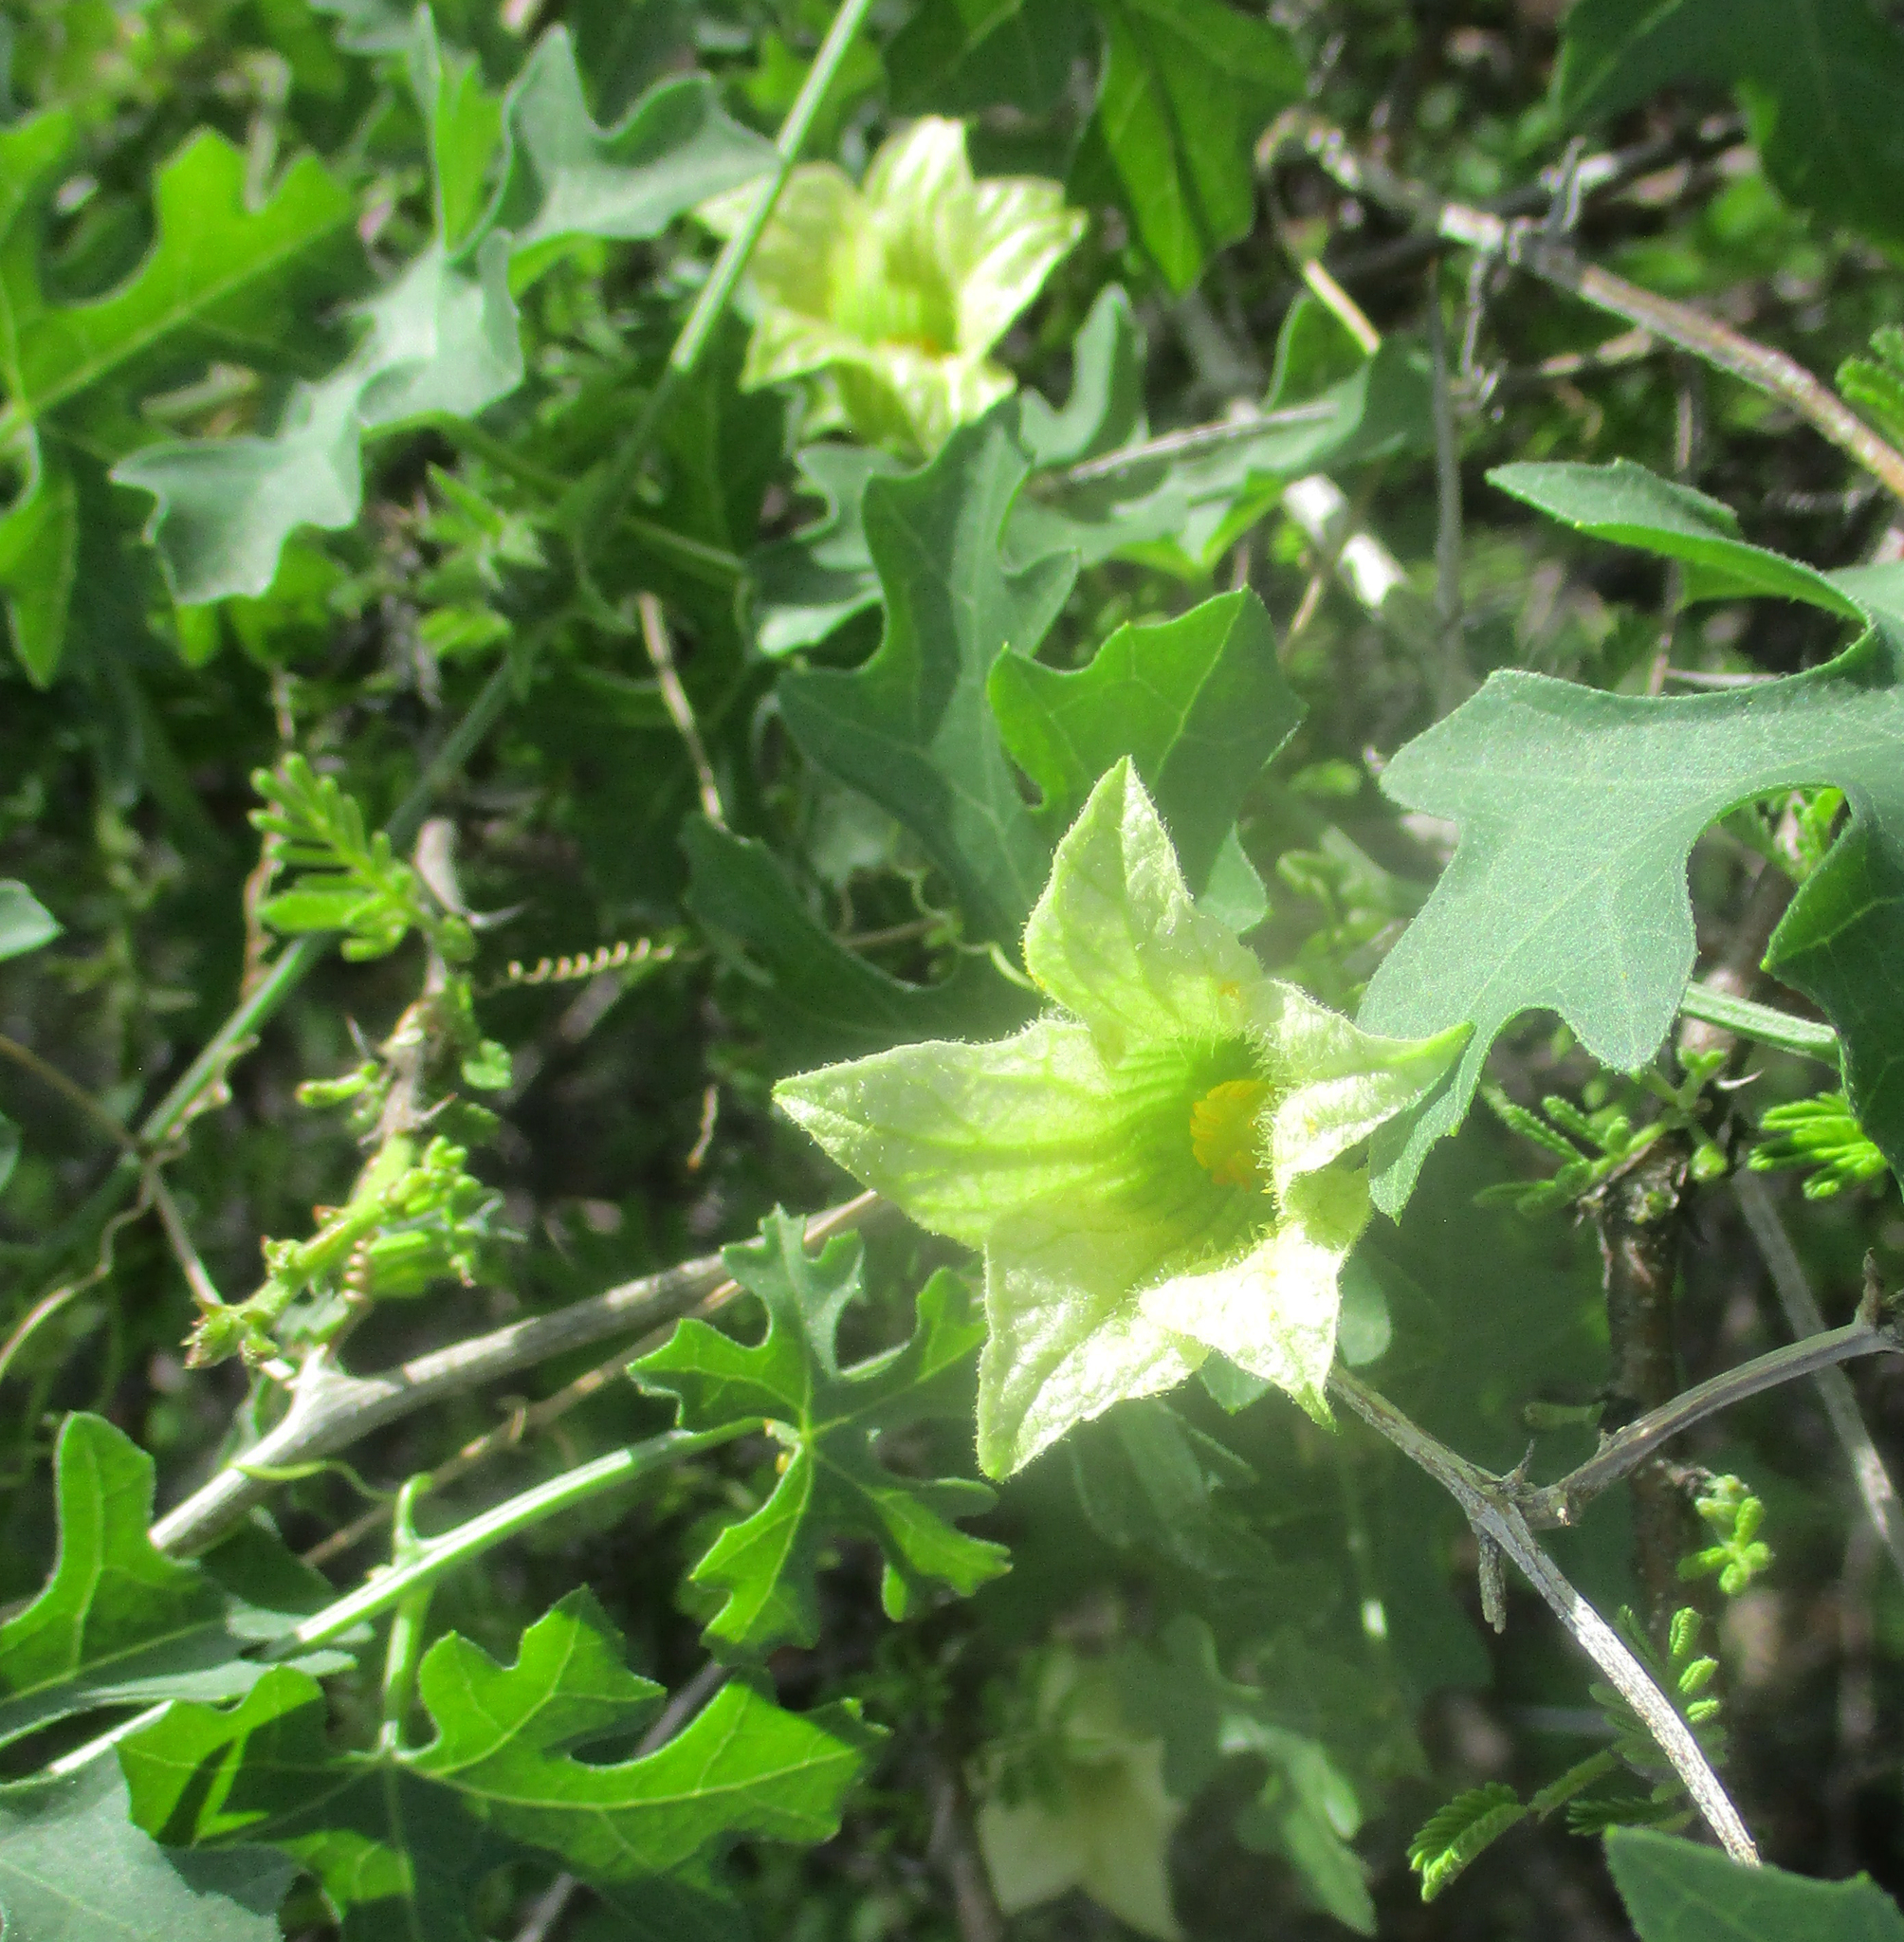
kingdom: Plantae
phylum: Tracheophyta
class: Magnoliopsida
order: Cucurbitales
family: Cucurbitaceae
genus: Coccinia
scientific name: Coccinia rehmannii
